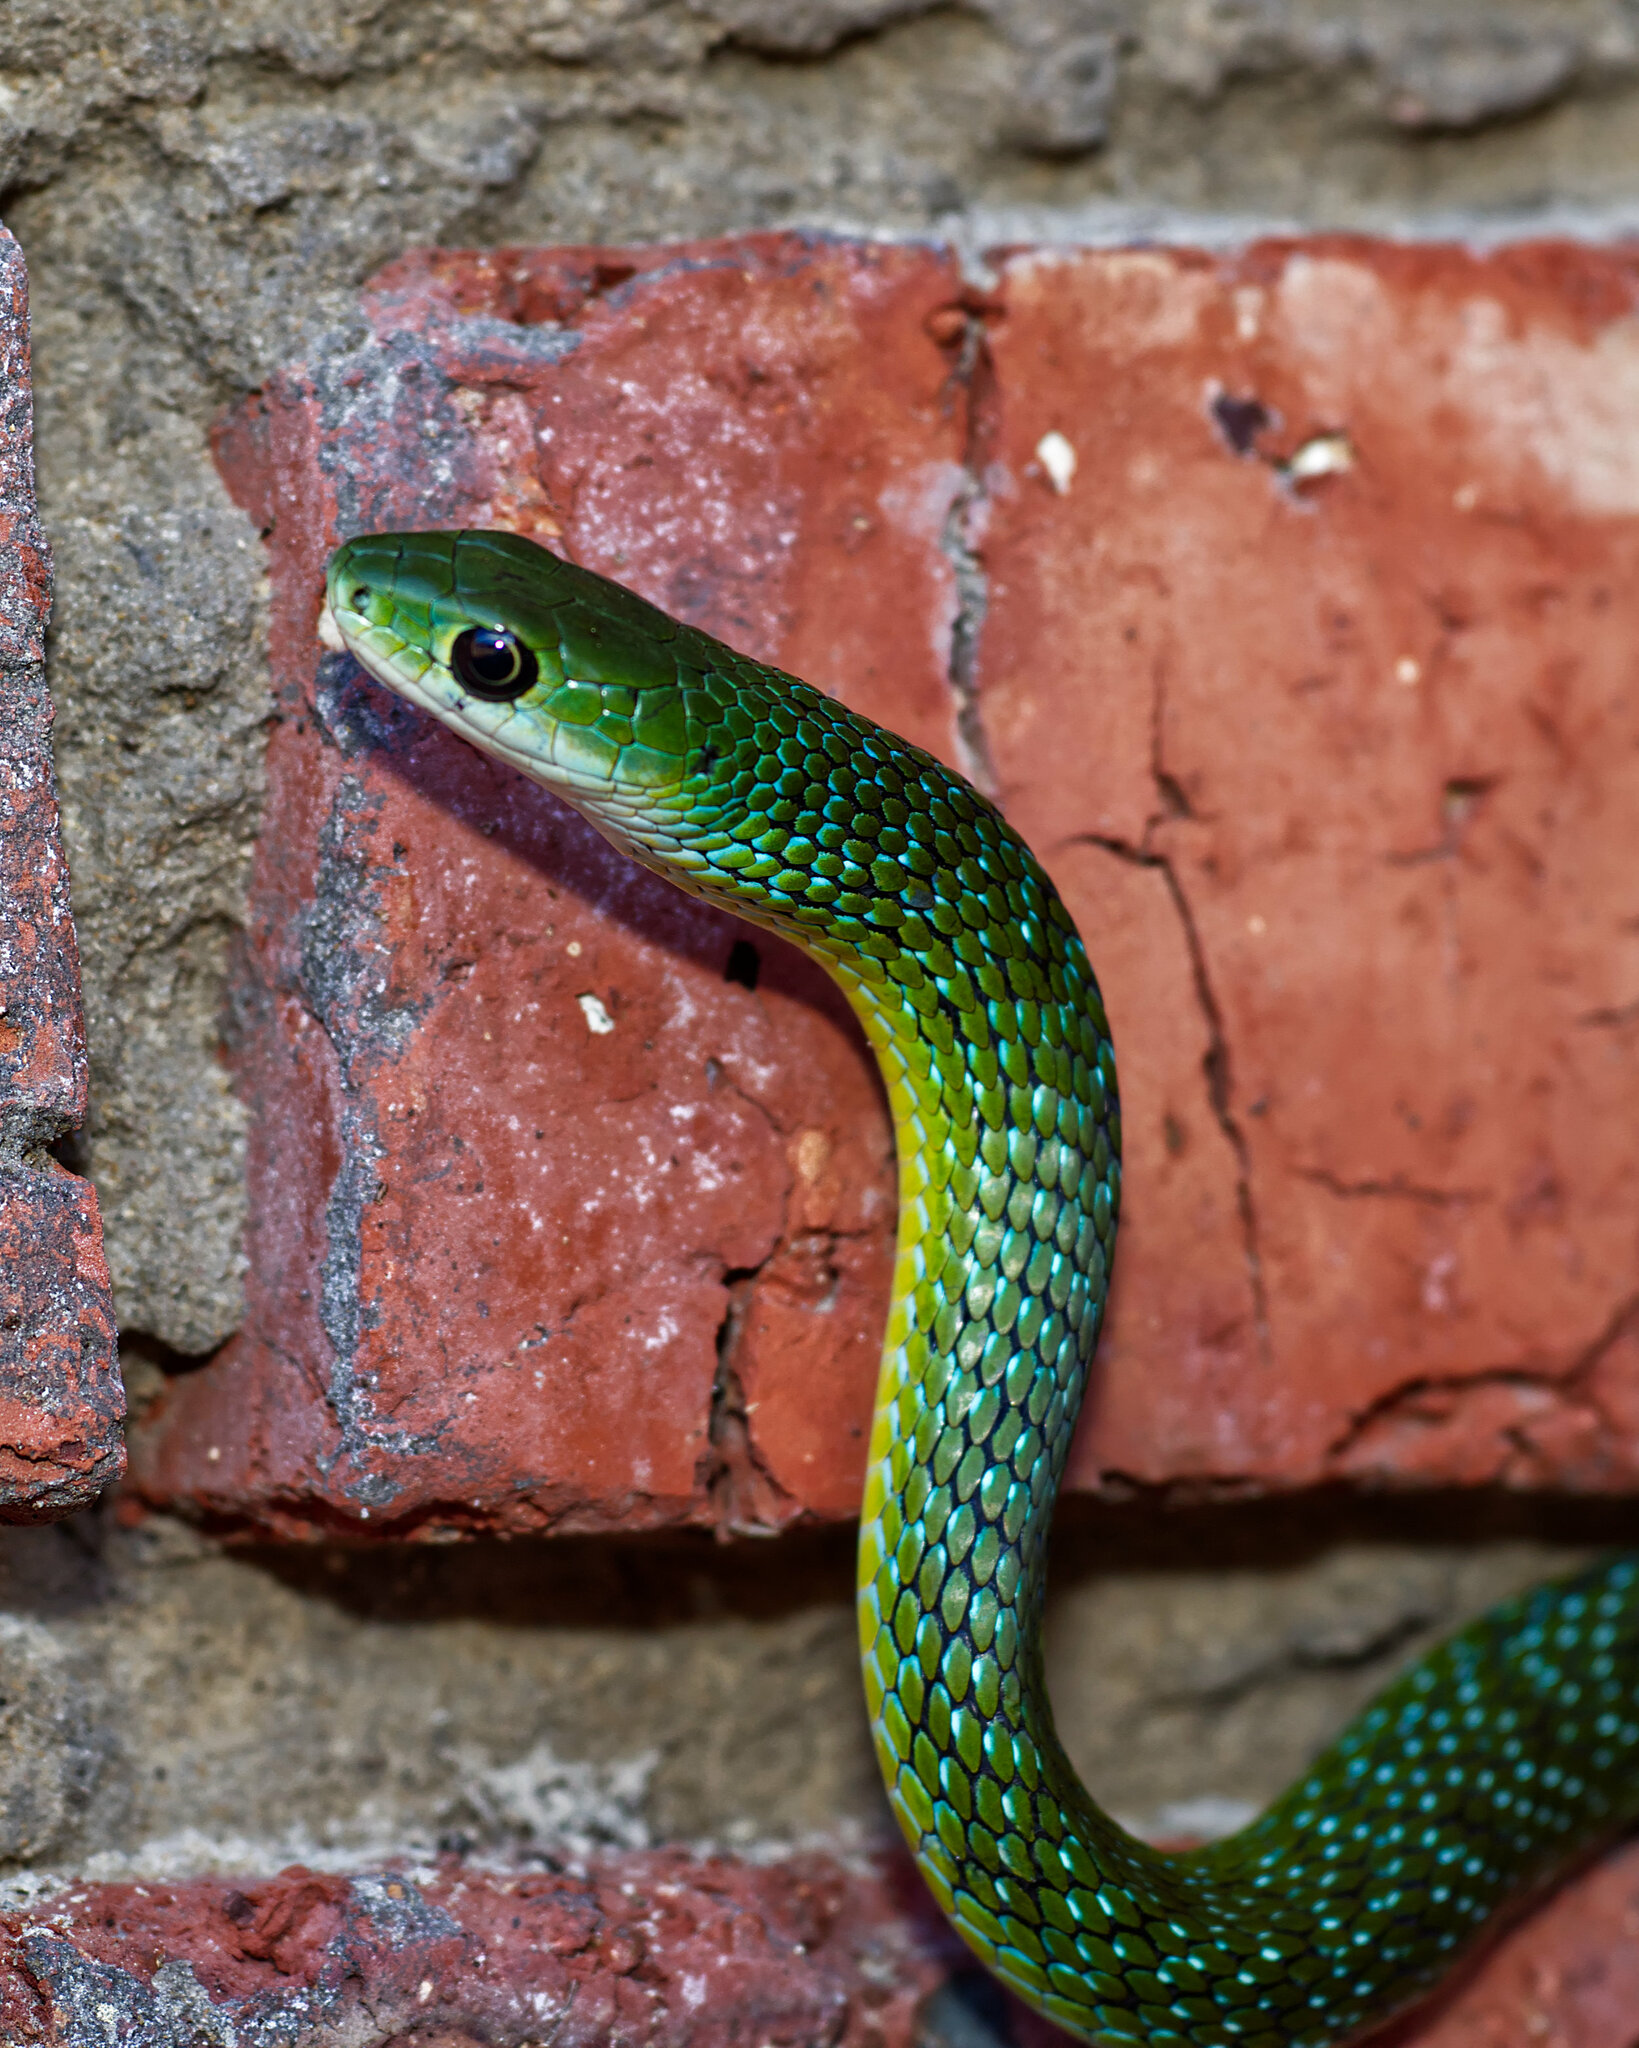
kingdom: Animalia
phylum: Chordata
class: Squamata
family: Colubridae
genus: Philothamnus
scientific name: Philothamnus occidentalis
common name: Western natal green snake
